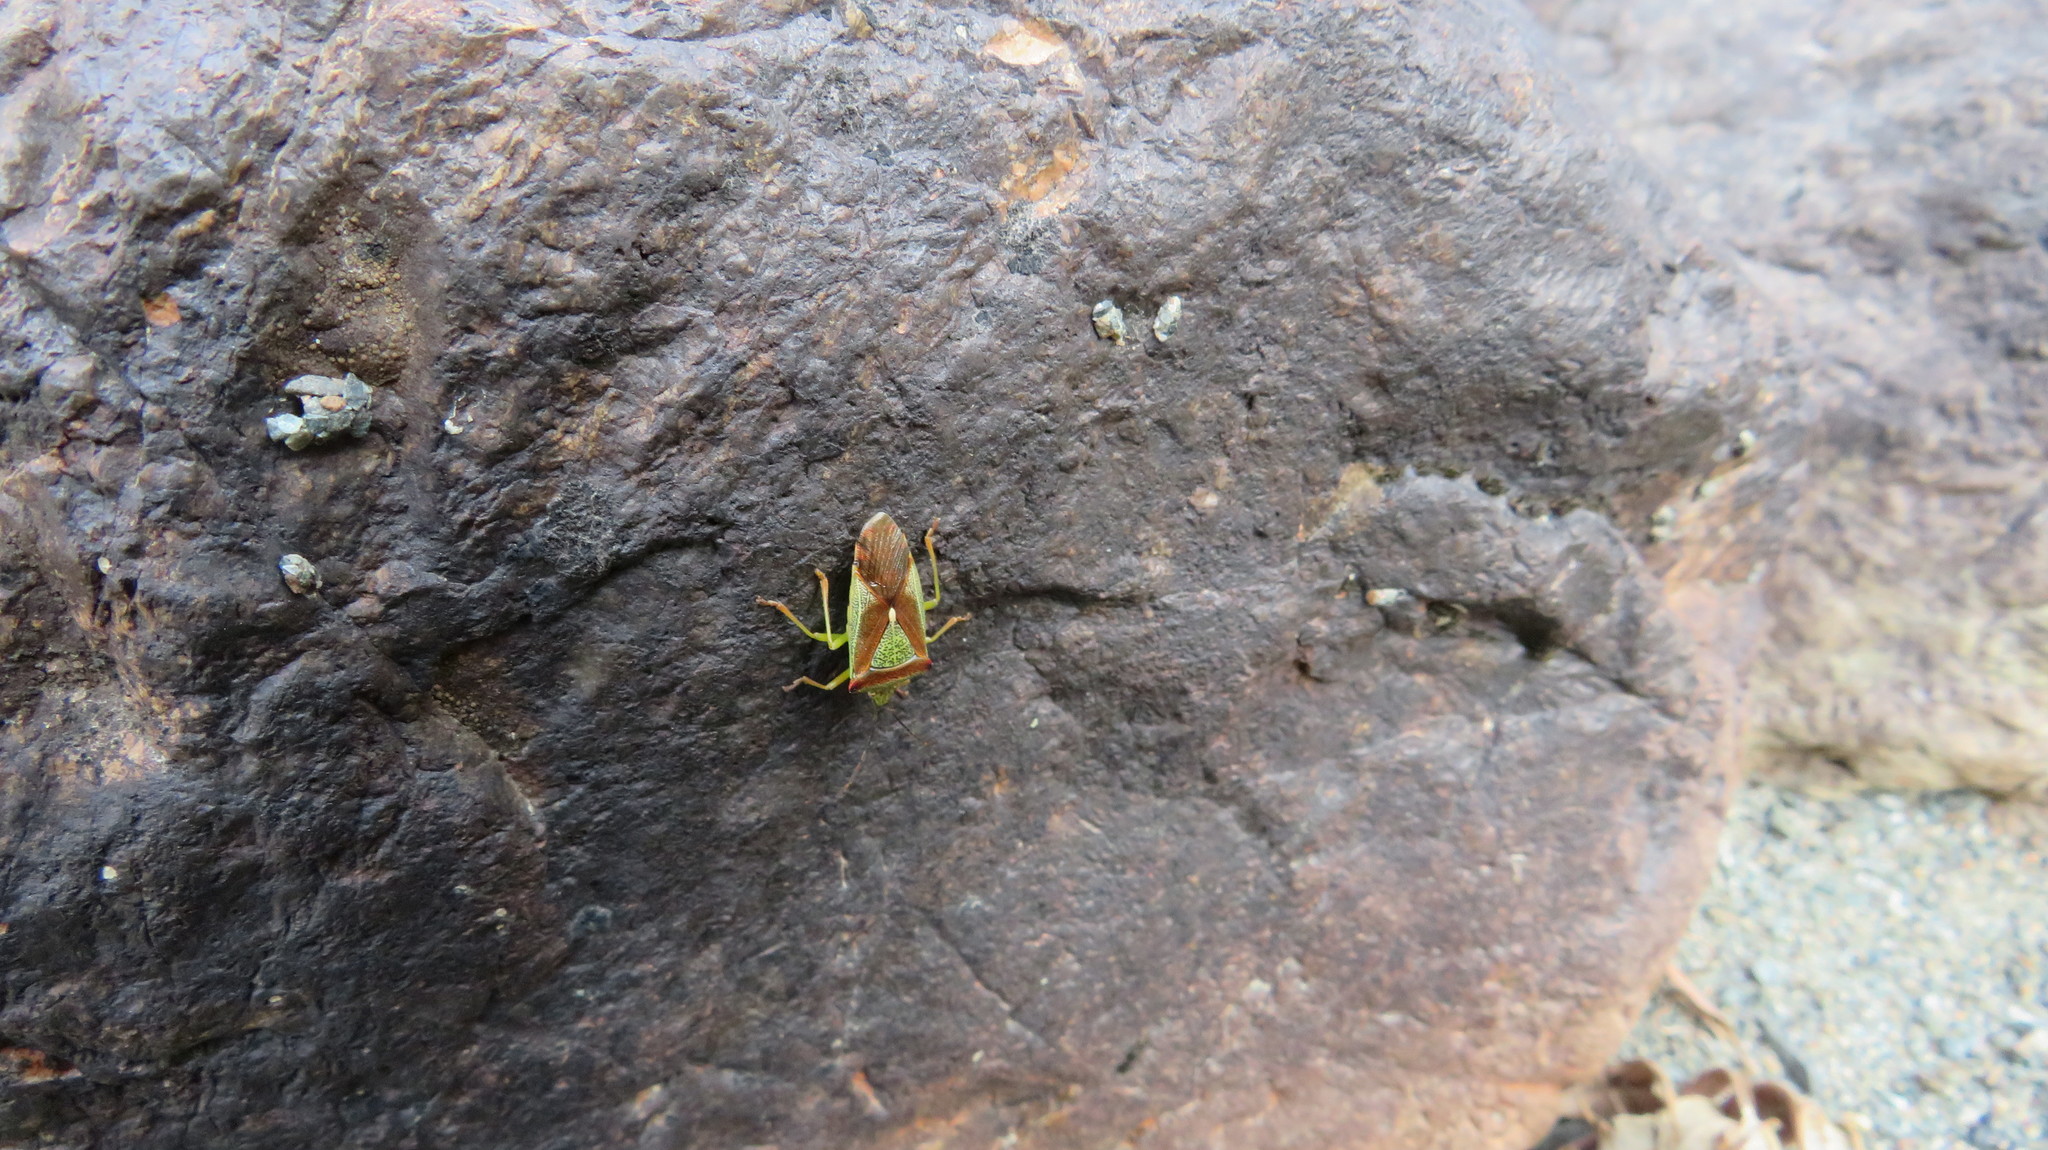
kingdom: Animalia
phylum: Arthropoda
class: Insecta
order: Hemiptera
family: Acanthosomatidae
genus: Acanthosoma
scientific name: Acanthosoma spinicolle
